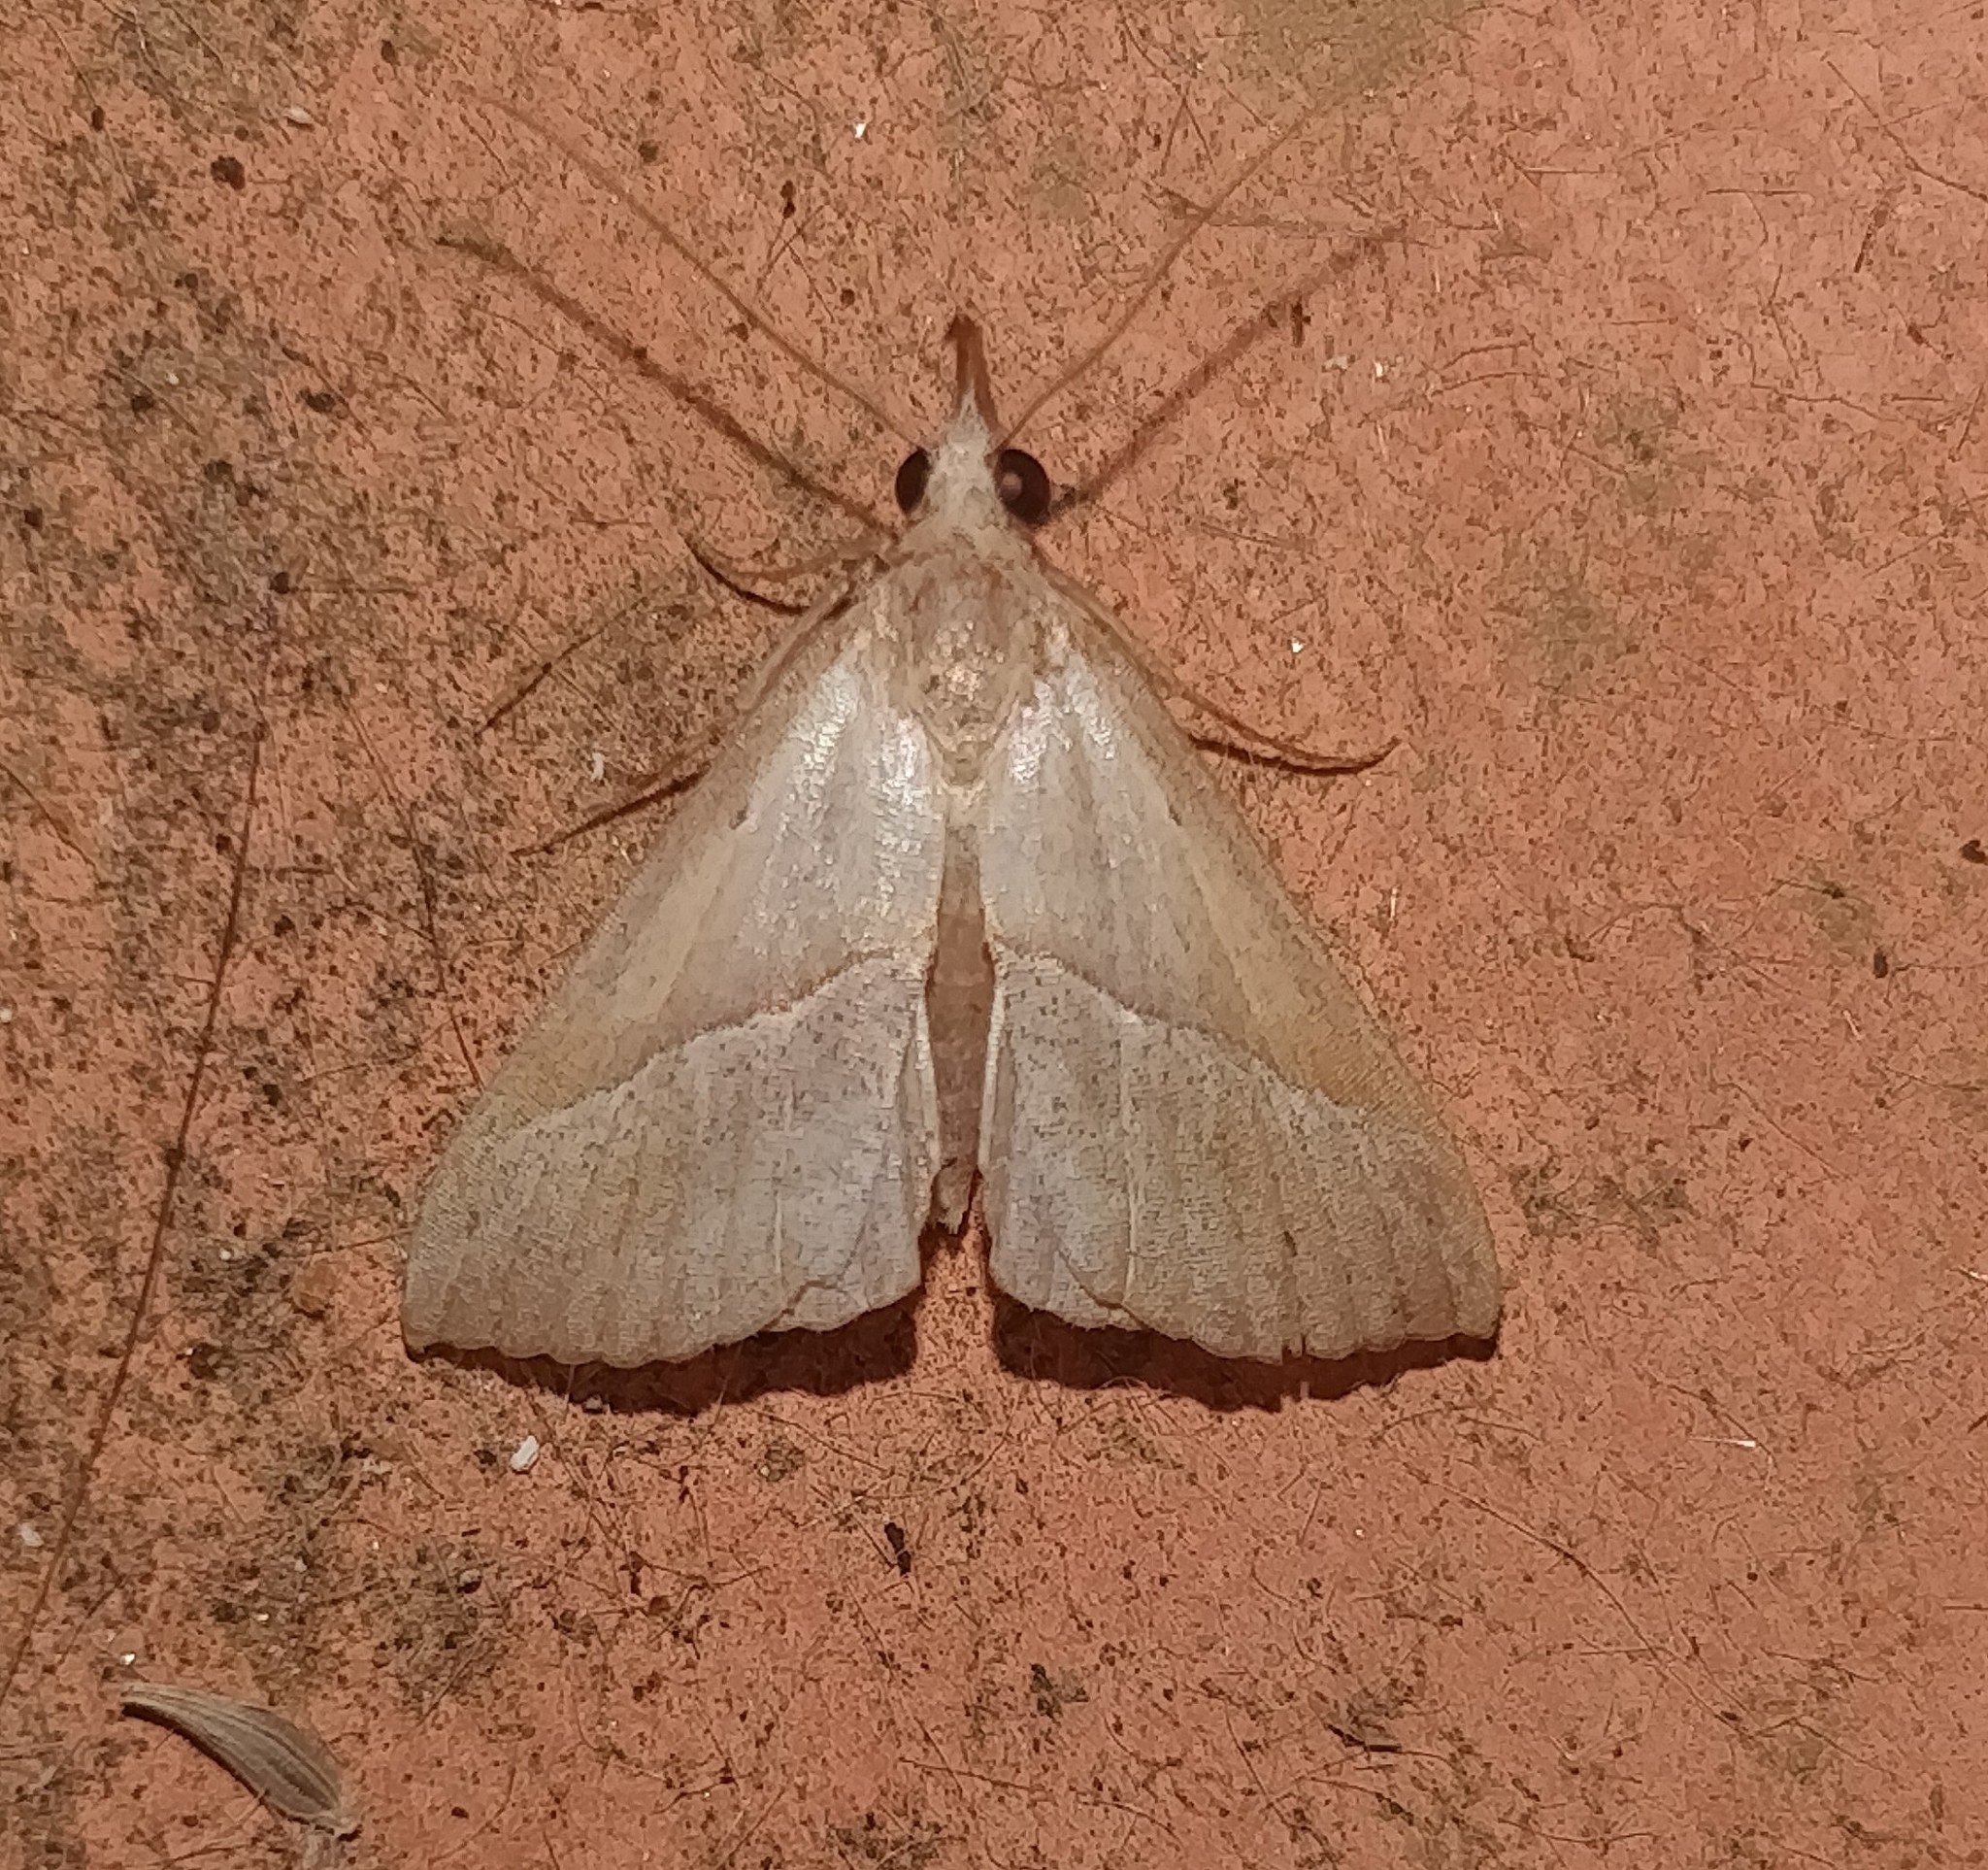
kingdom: Animalia
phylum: Arthropoda
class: Insecta
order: Lepidoptera
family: Erebidae
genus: Hypena
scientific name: Hypena lividalis
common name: Chevron snout
